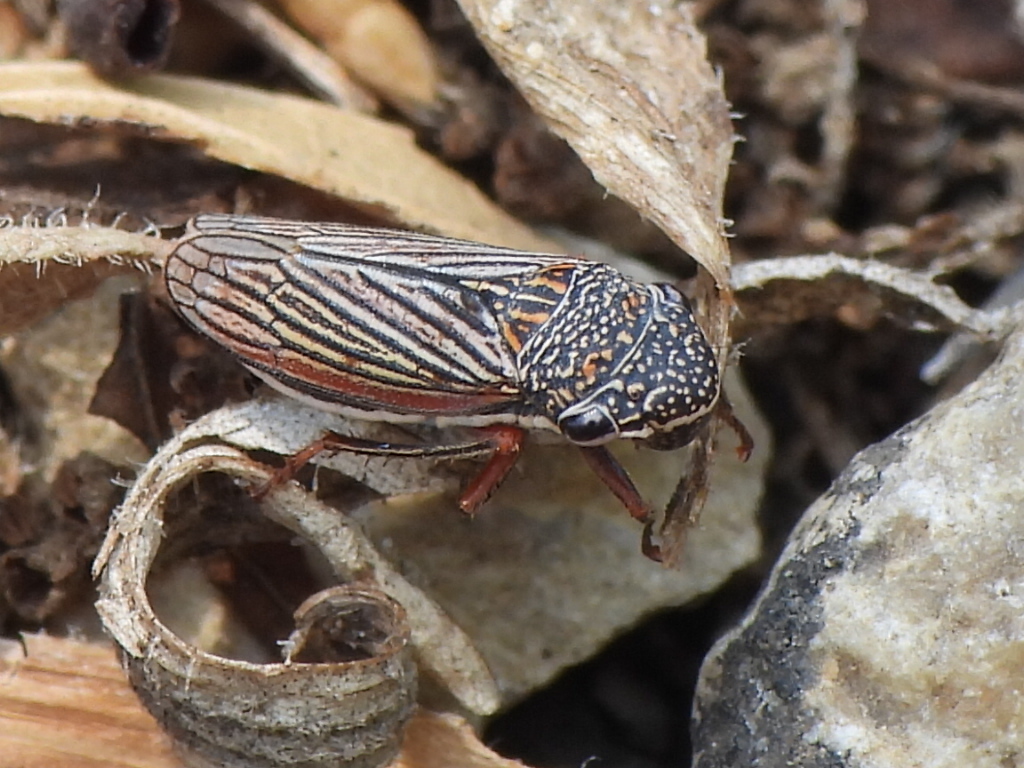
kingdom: Animalia
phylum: Arthropoda
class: Insecta
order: Hemiptera
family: Cicadellidae
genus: Cuerna
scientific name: Cuerna costalis
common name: Lateral-lined sharpshooter
